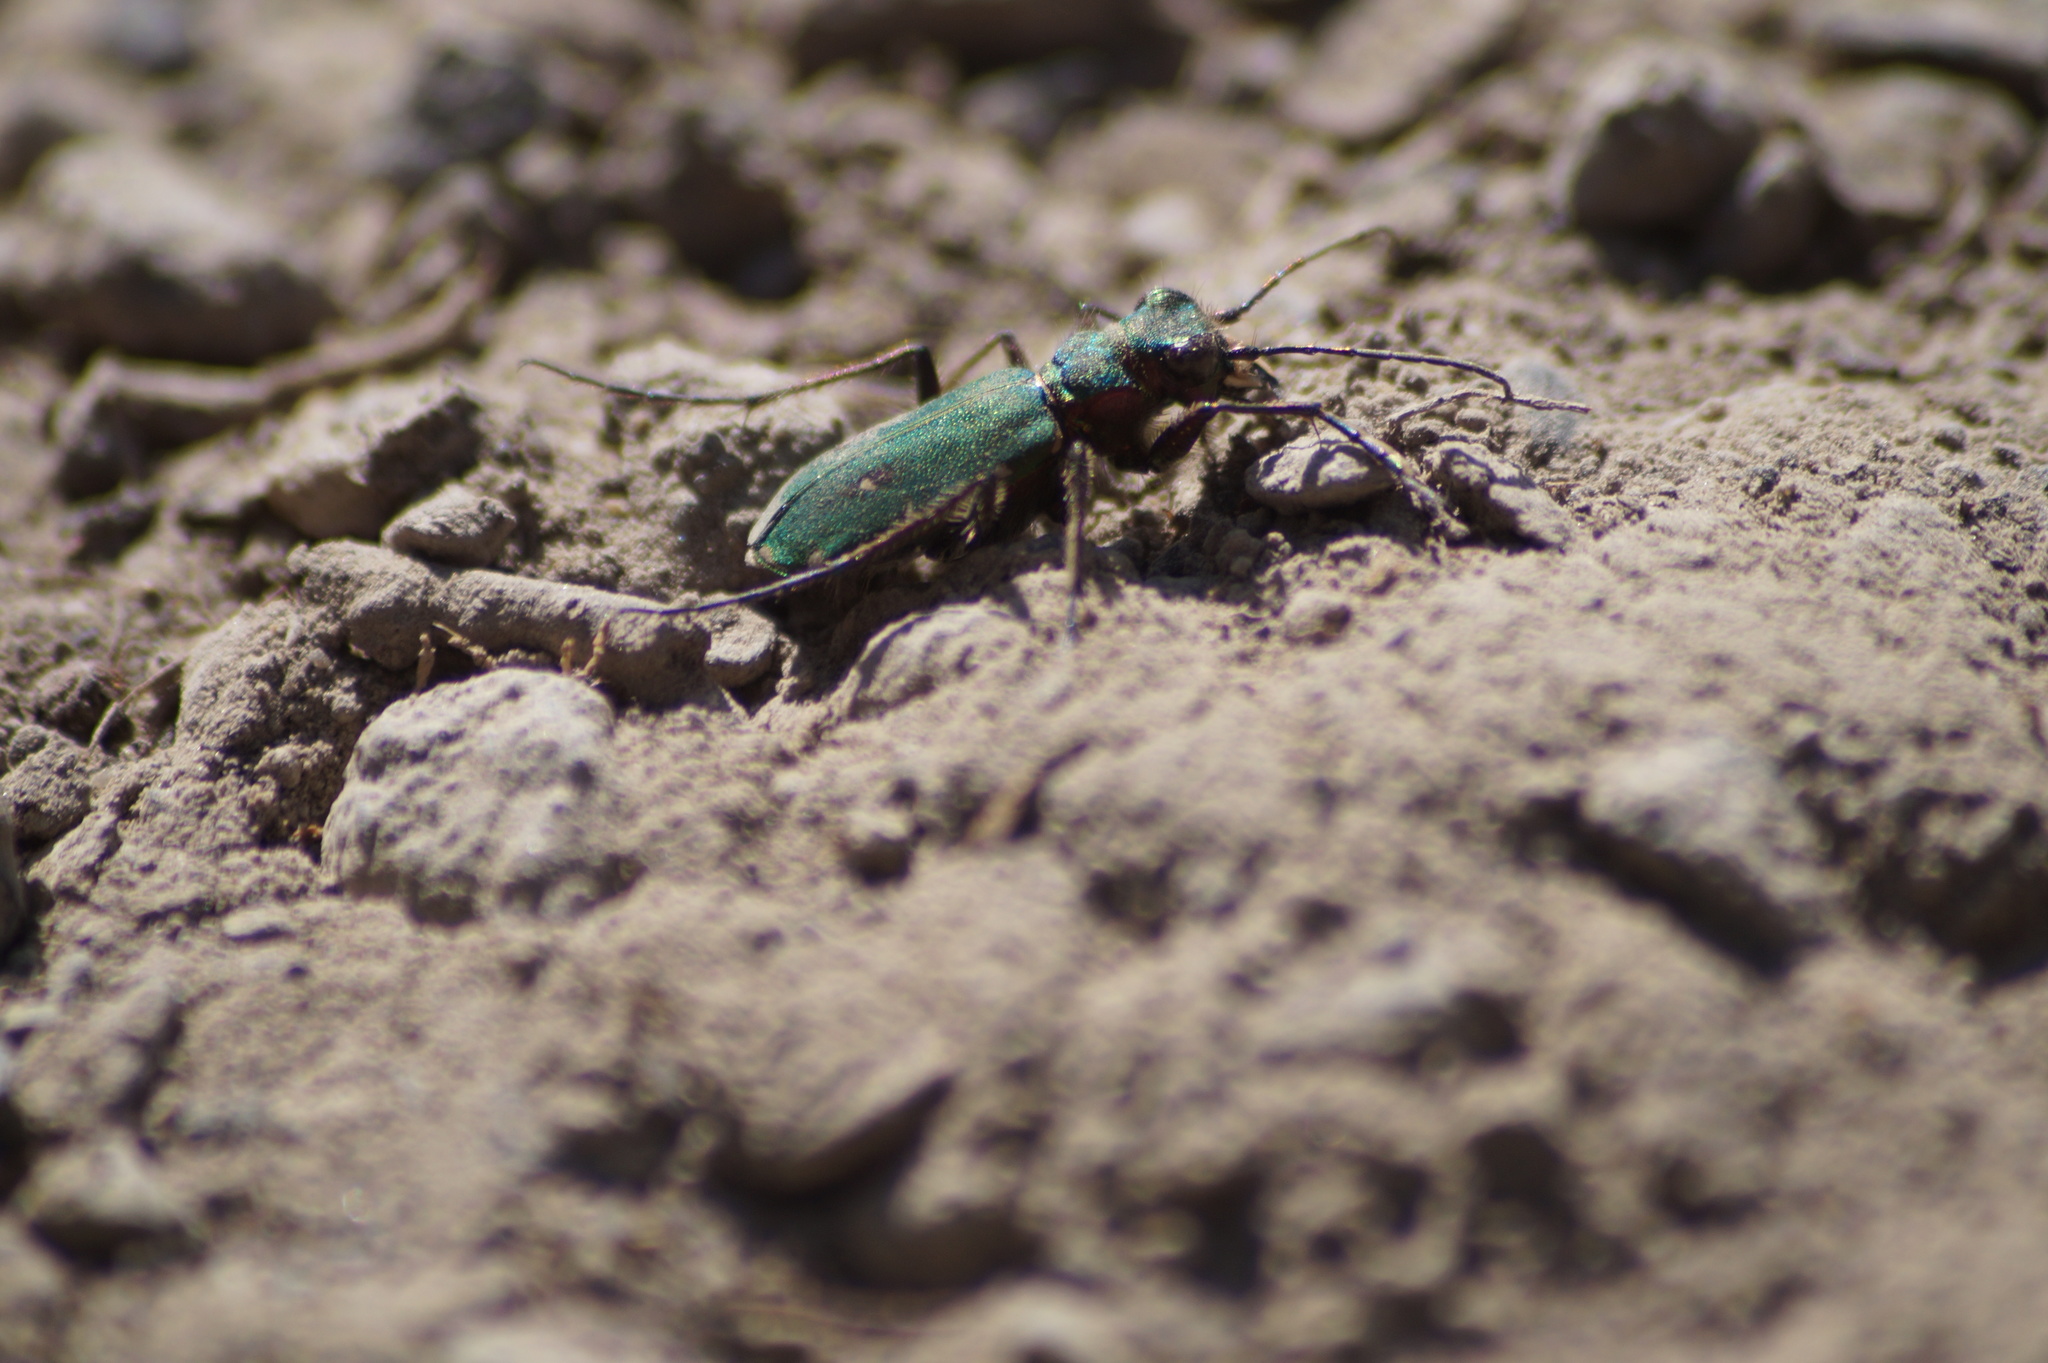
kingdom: Animalia
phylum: Arthropoda
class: Insecta
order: Coleoptera
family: Carabidae
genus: Cicindela
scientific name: Cicindela campestris
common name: Common tiger beetle
